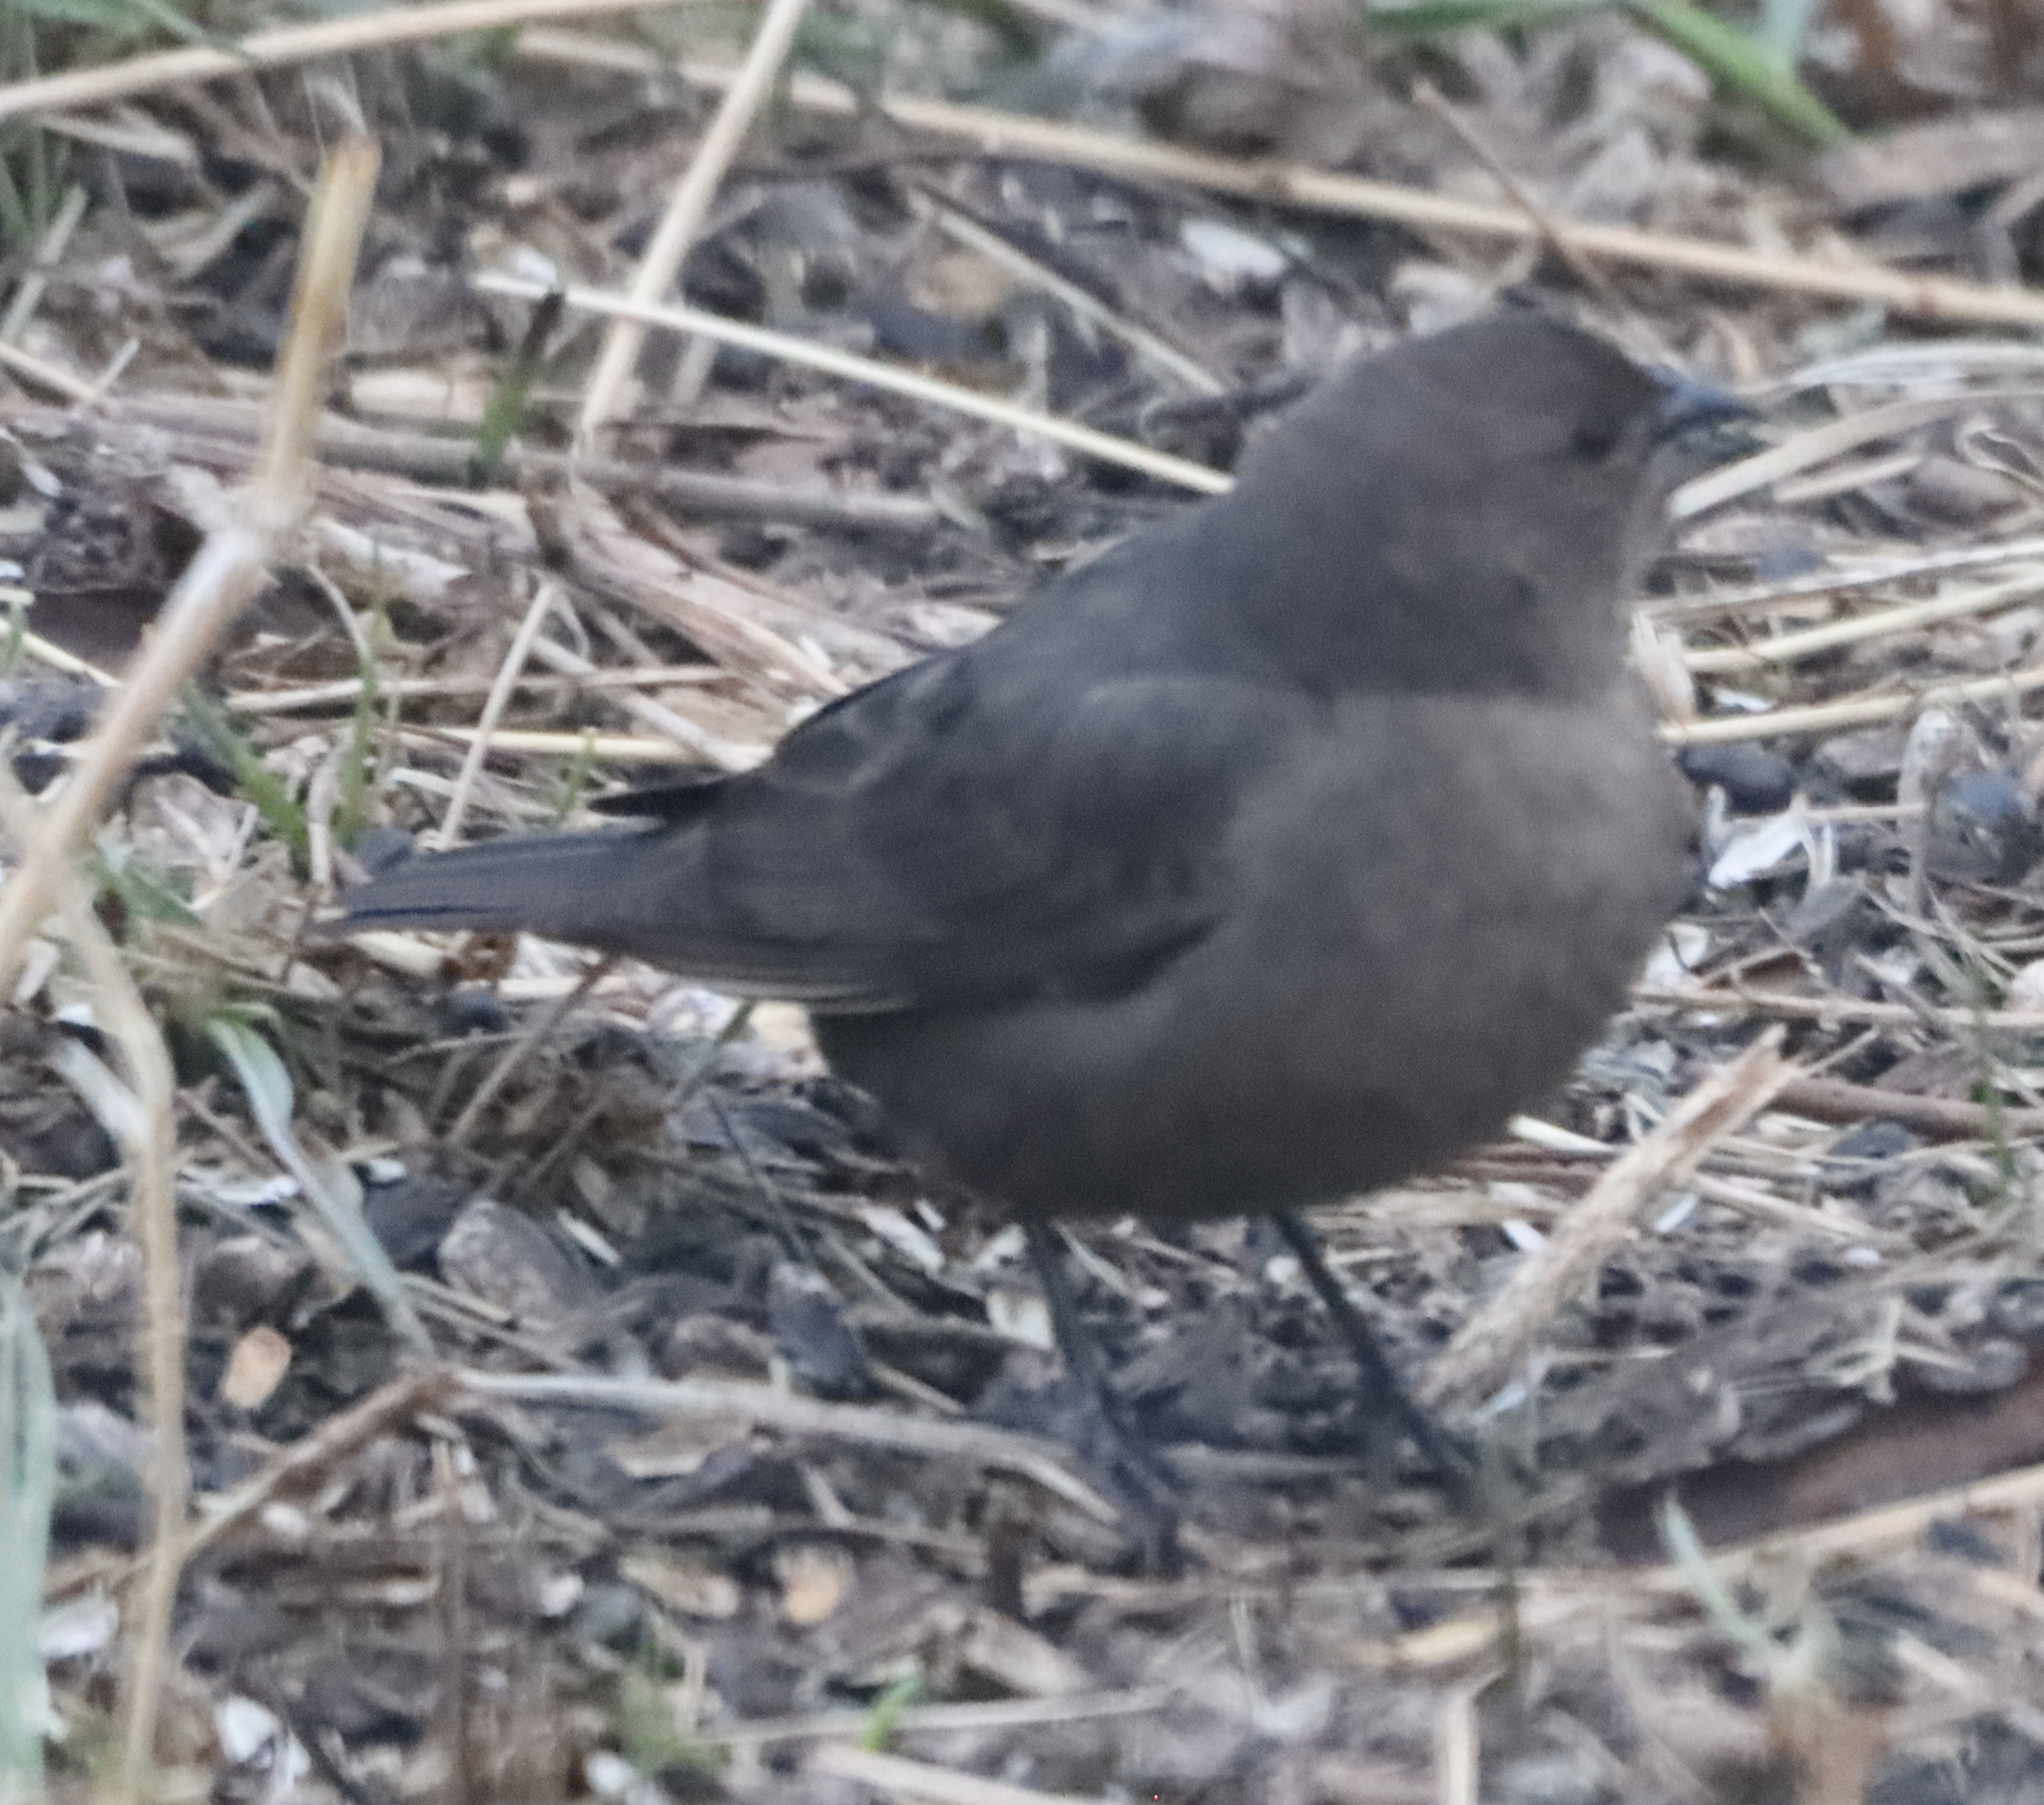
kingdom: Animalia
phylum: Chordata
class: Aves
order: Passeriformes
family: Icteridae
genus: Molothrus
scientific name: Molothrus ater
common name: Brown-headed cowbird
